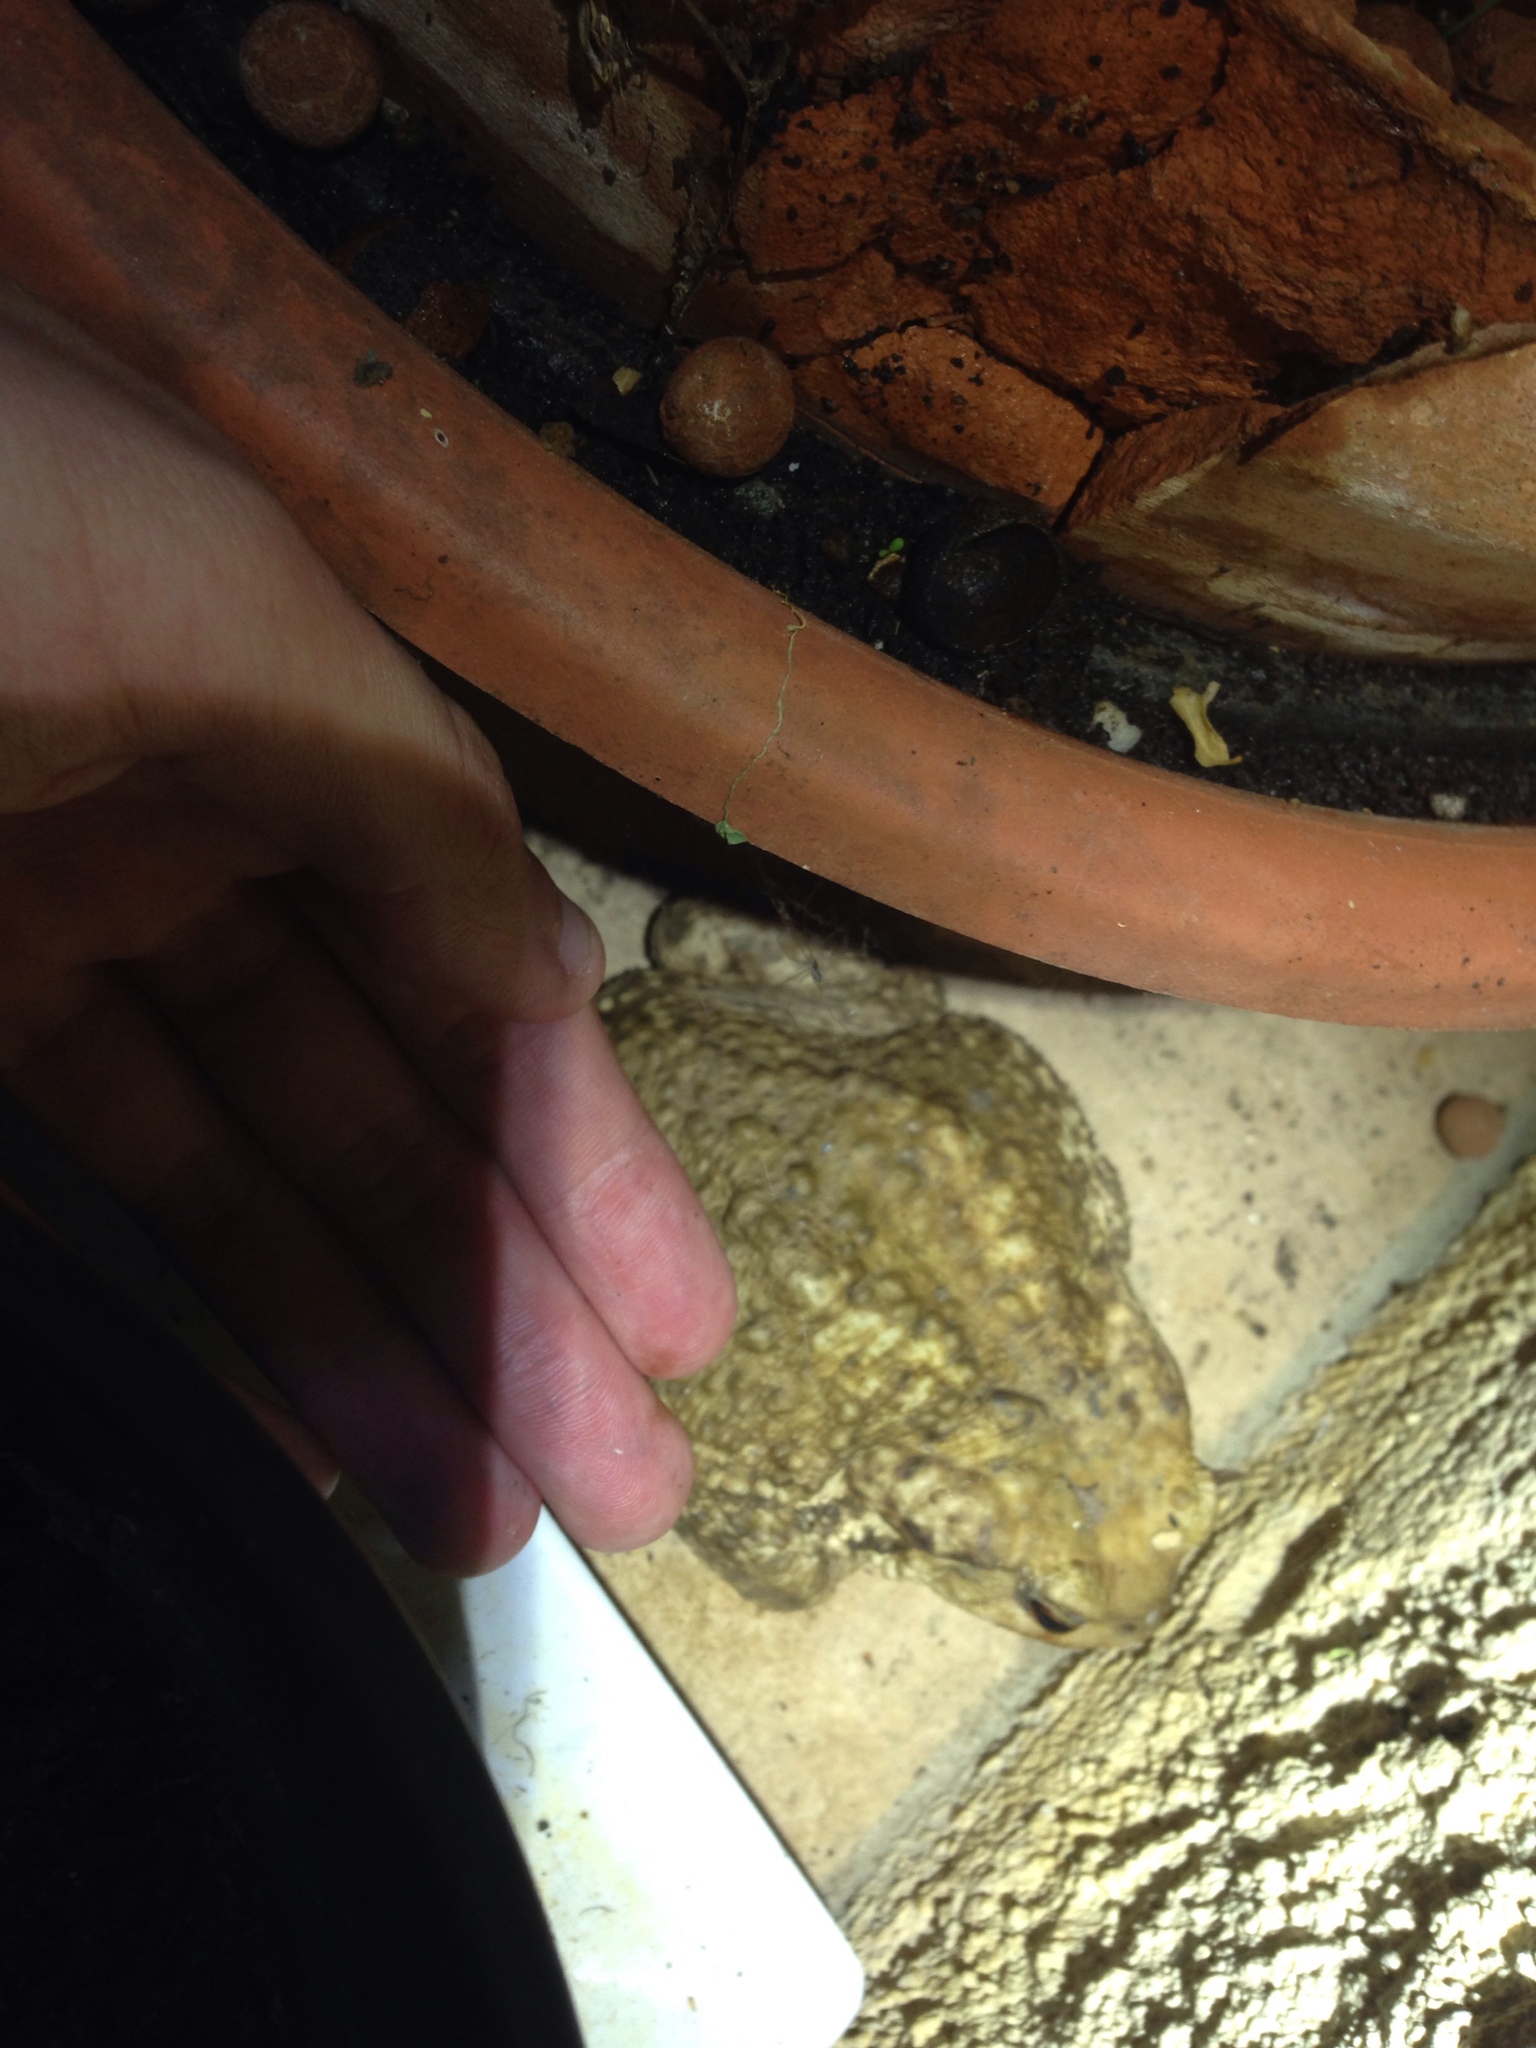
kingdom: Animalia
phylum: Chordata
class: Amphibia
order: Anura
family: Bufonidae
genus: Bufo
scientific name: Bufo spinosus
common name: Western common toad
